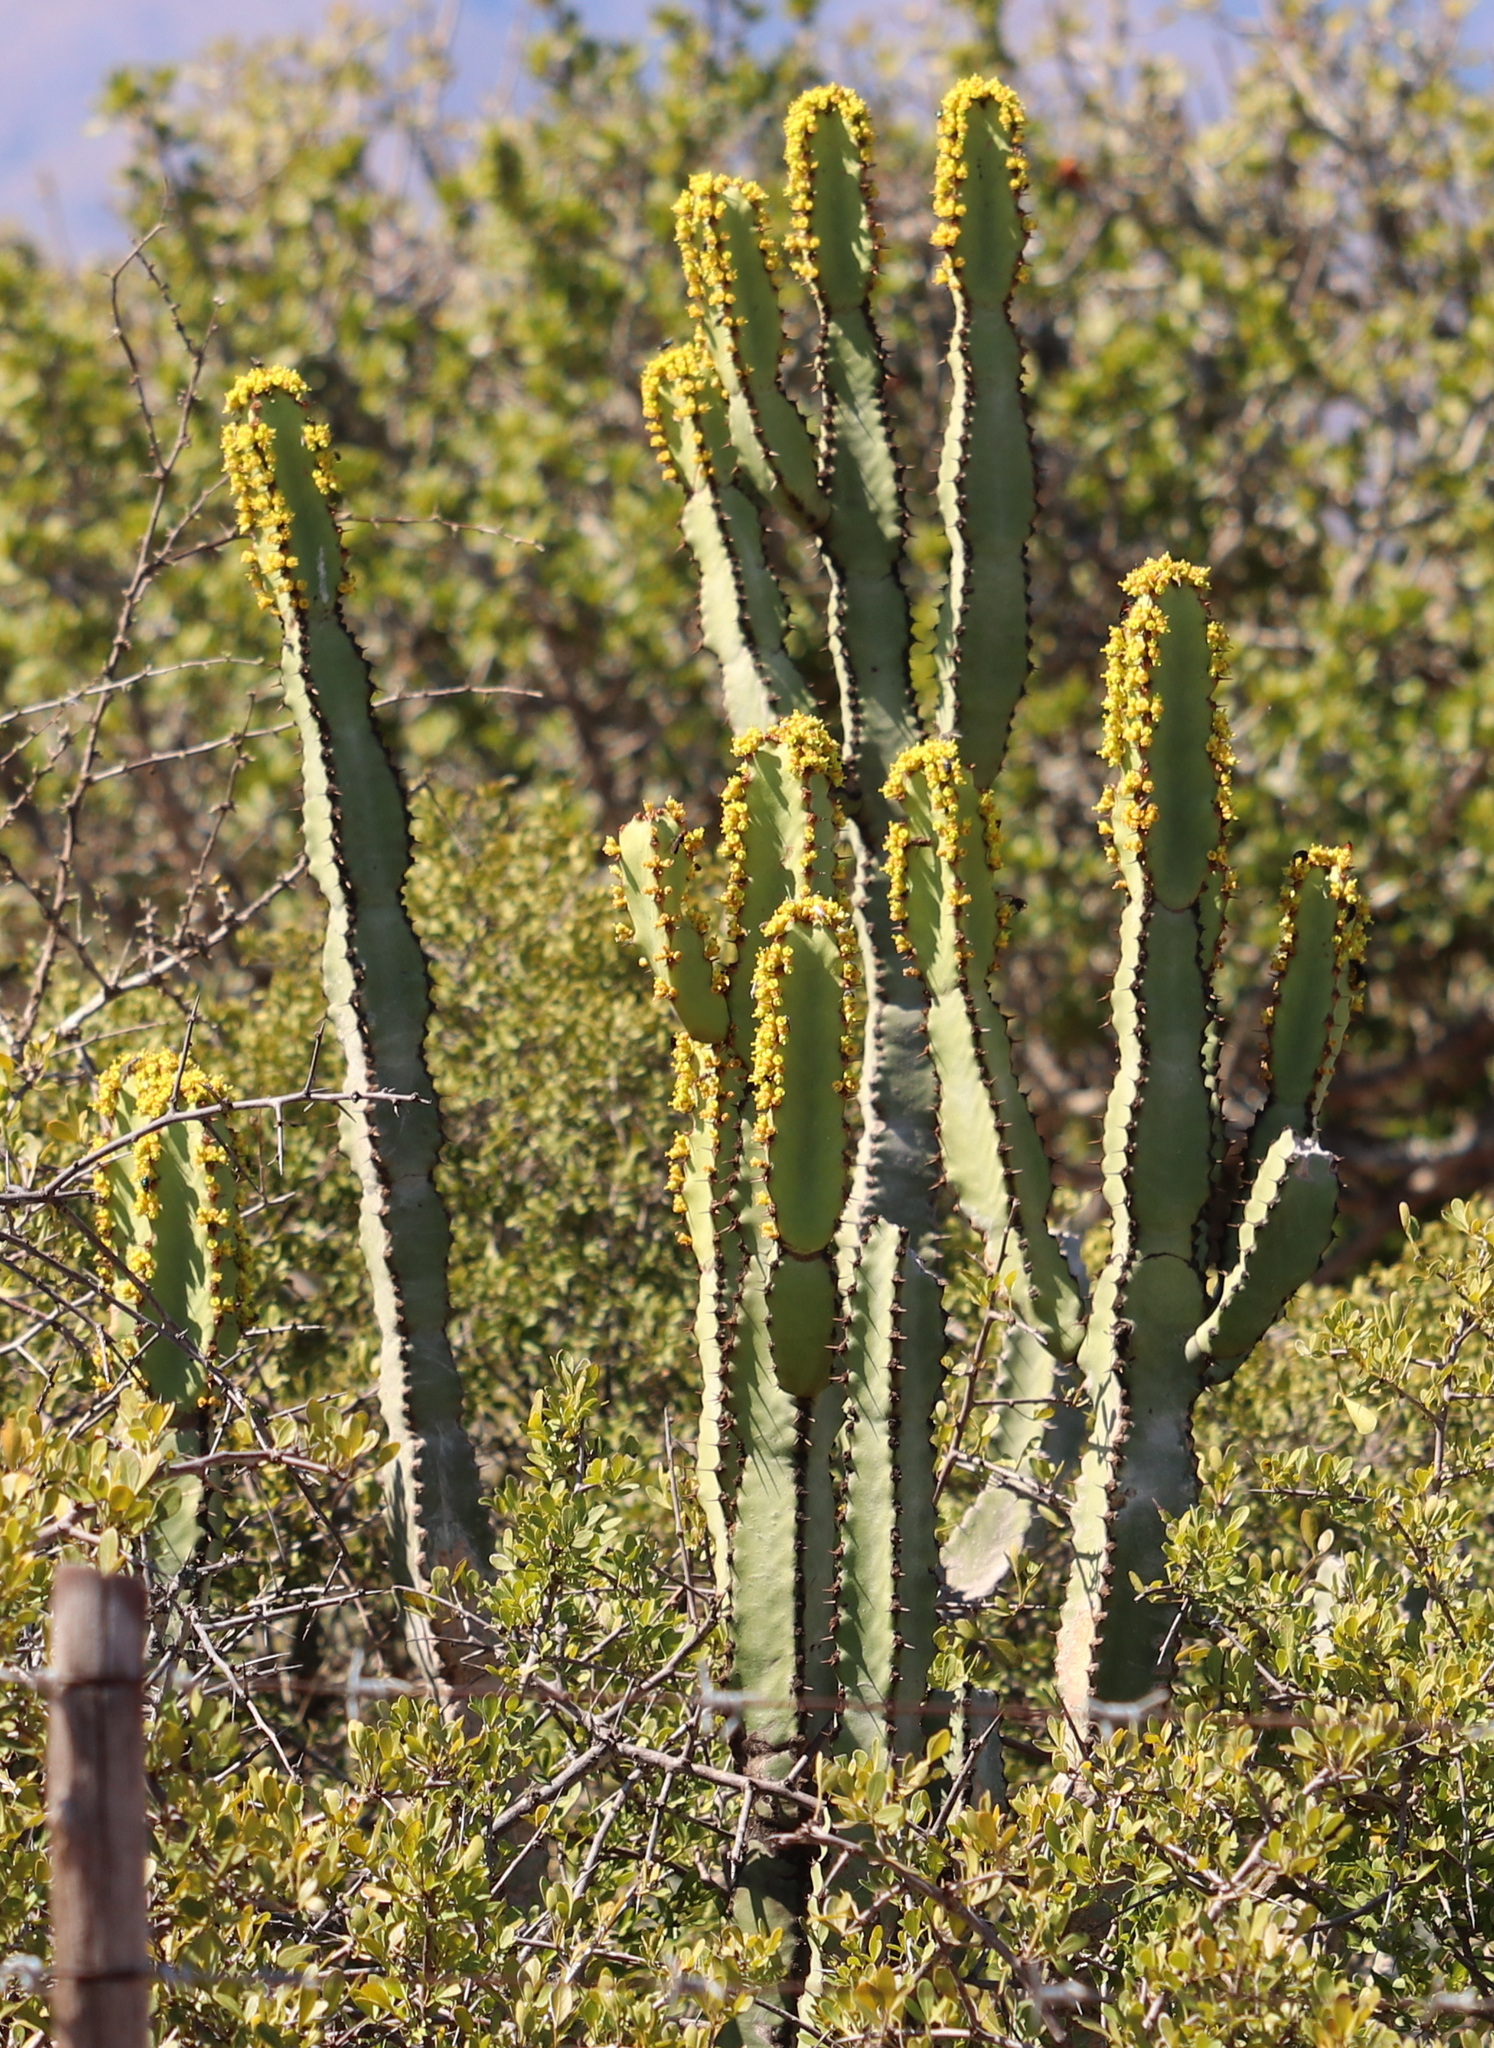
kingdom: Plantae
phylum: Tracheophyta
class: Magnoliopsida
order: Malpighiales
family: Euphorbiaceae
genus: Euphorbia
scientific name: Euphorbia caerulescens
